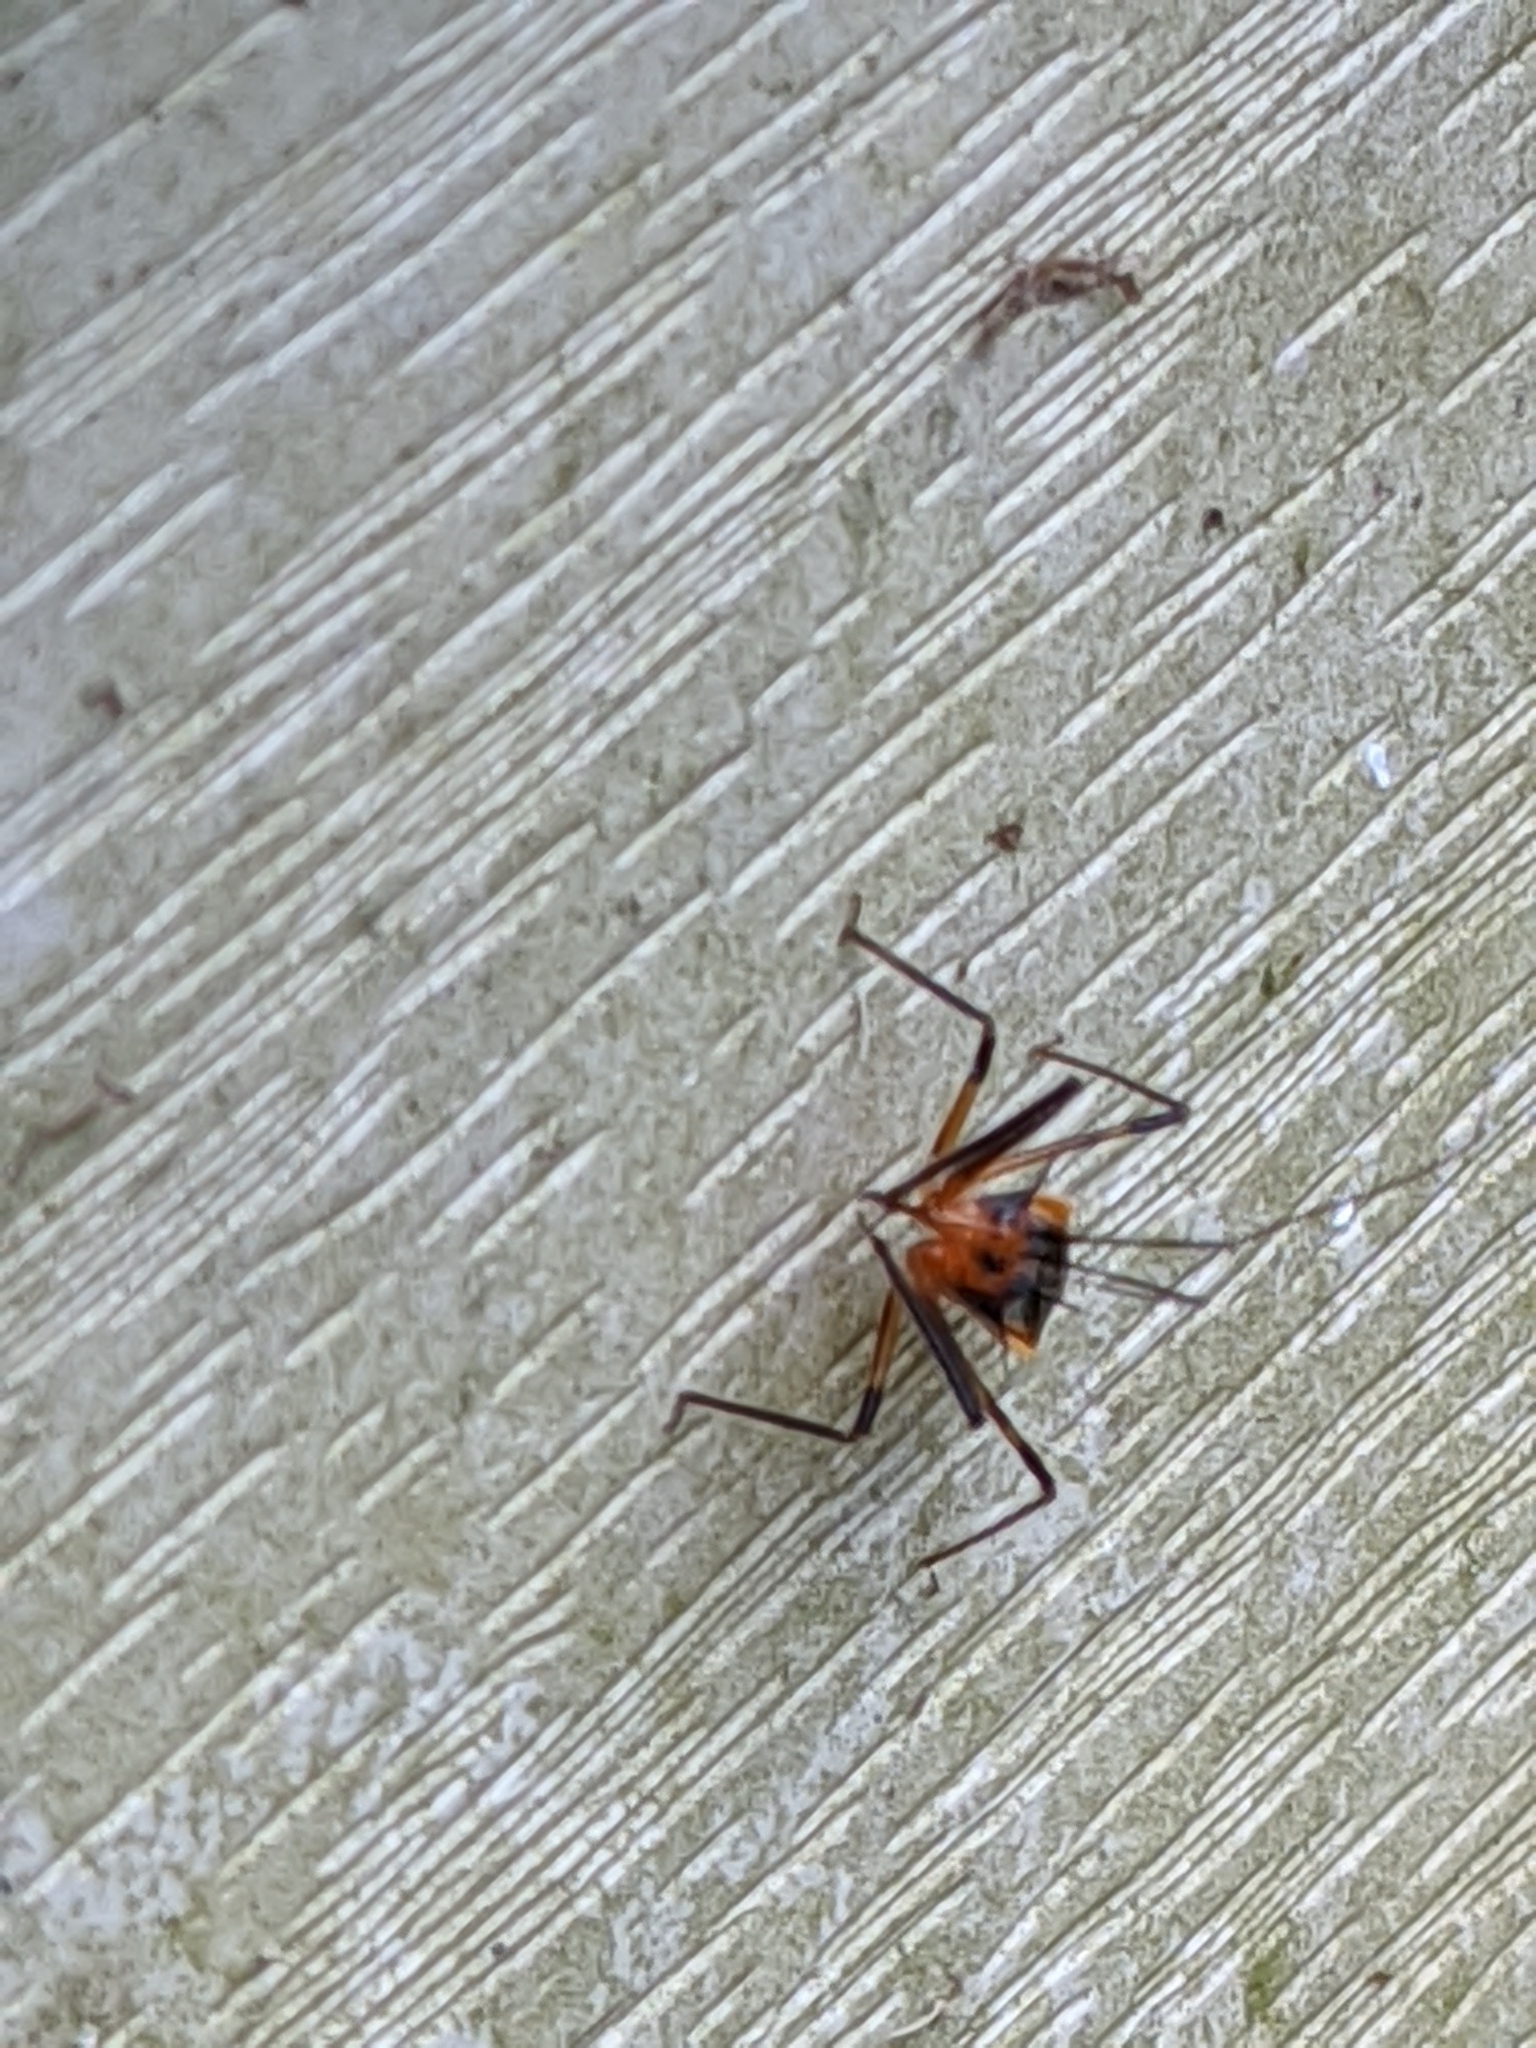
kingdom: Animalia
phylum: Arthropoda
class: Insecta
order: Hemiptera
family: Reduviidae
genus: Repipta
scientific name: Repipta taurus
